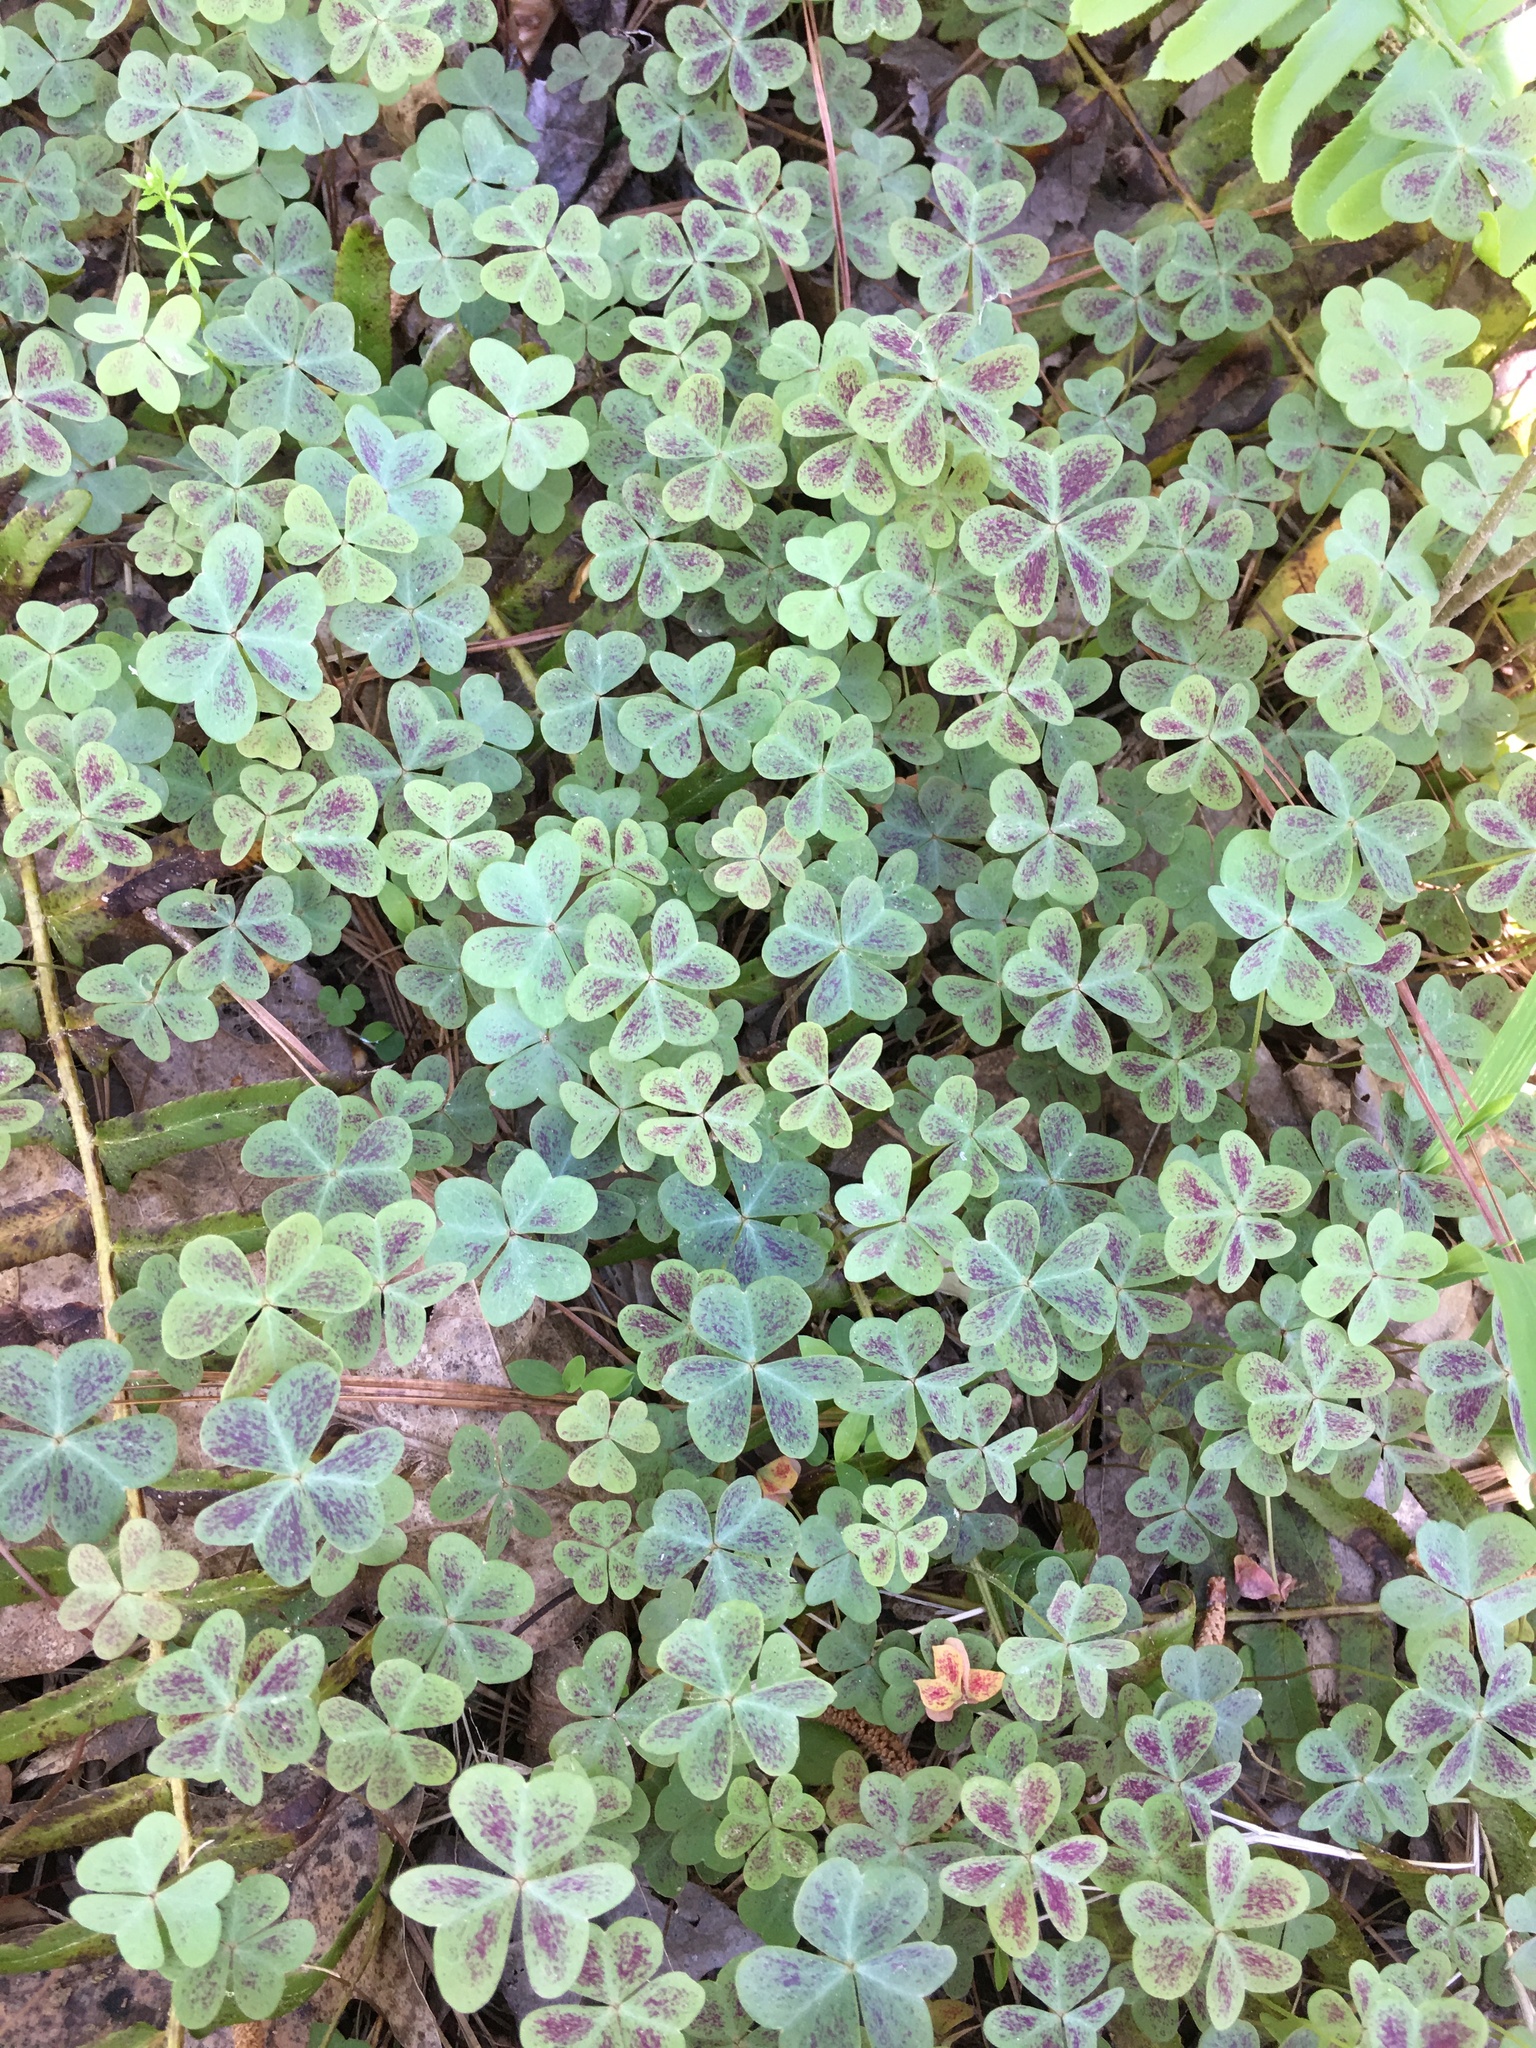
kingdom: Plantae
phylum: Tracheophyta
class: Magnoliopsida
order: Oxalidales
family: Oxalidaceae
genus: Oxalis
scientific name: Oxalis violacea
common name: Violet wood-sorrel
